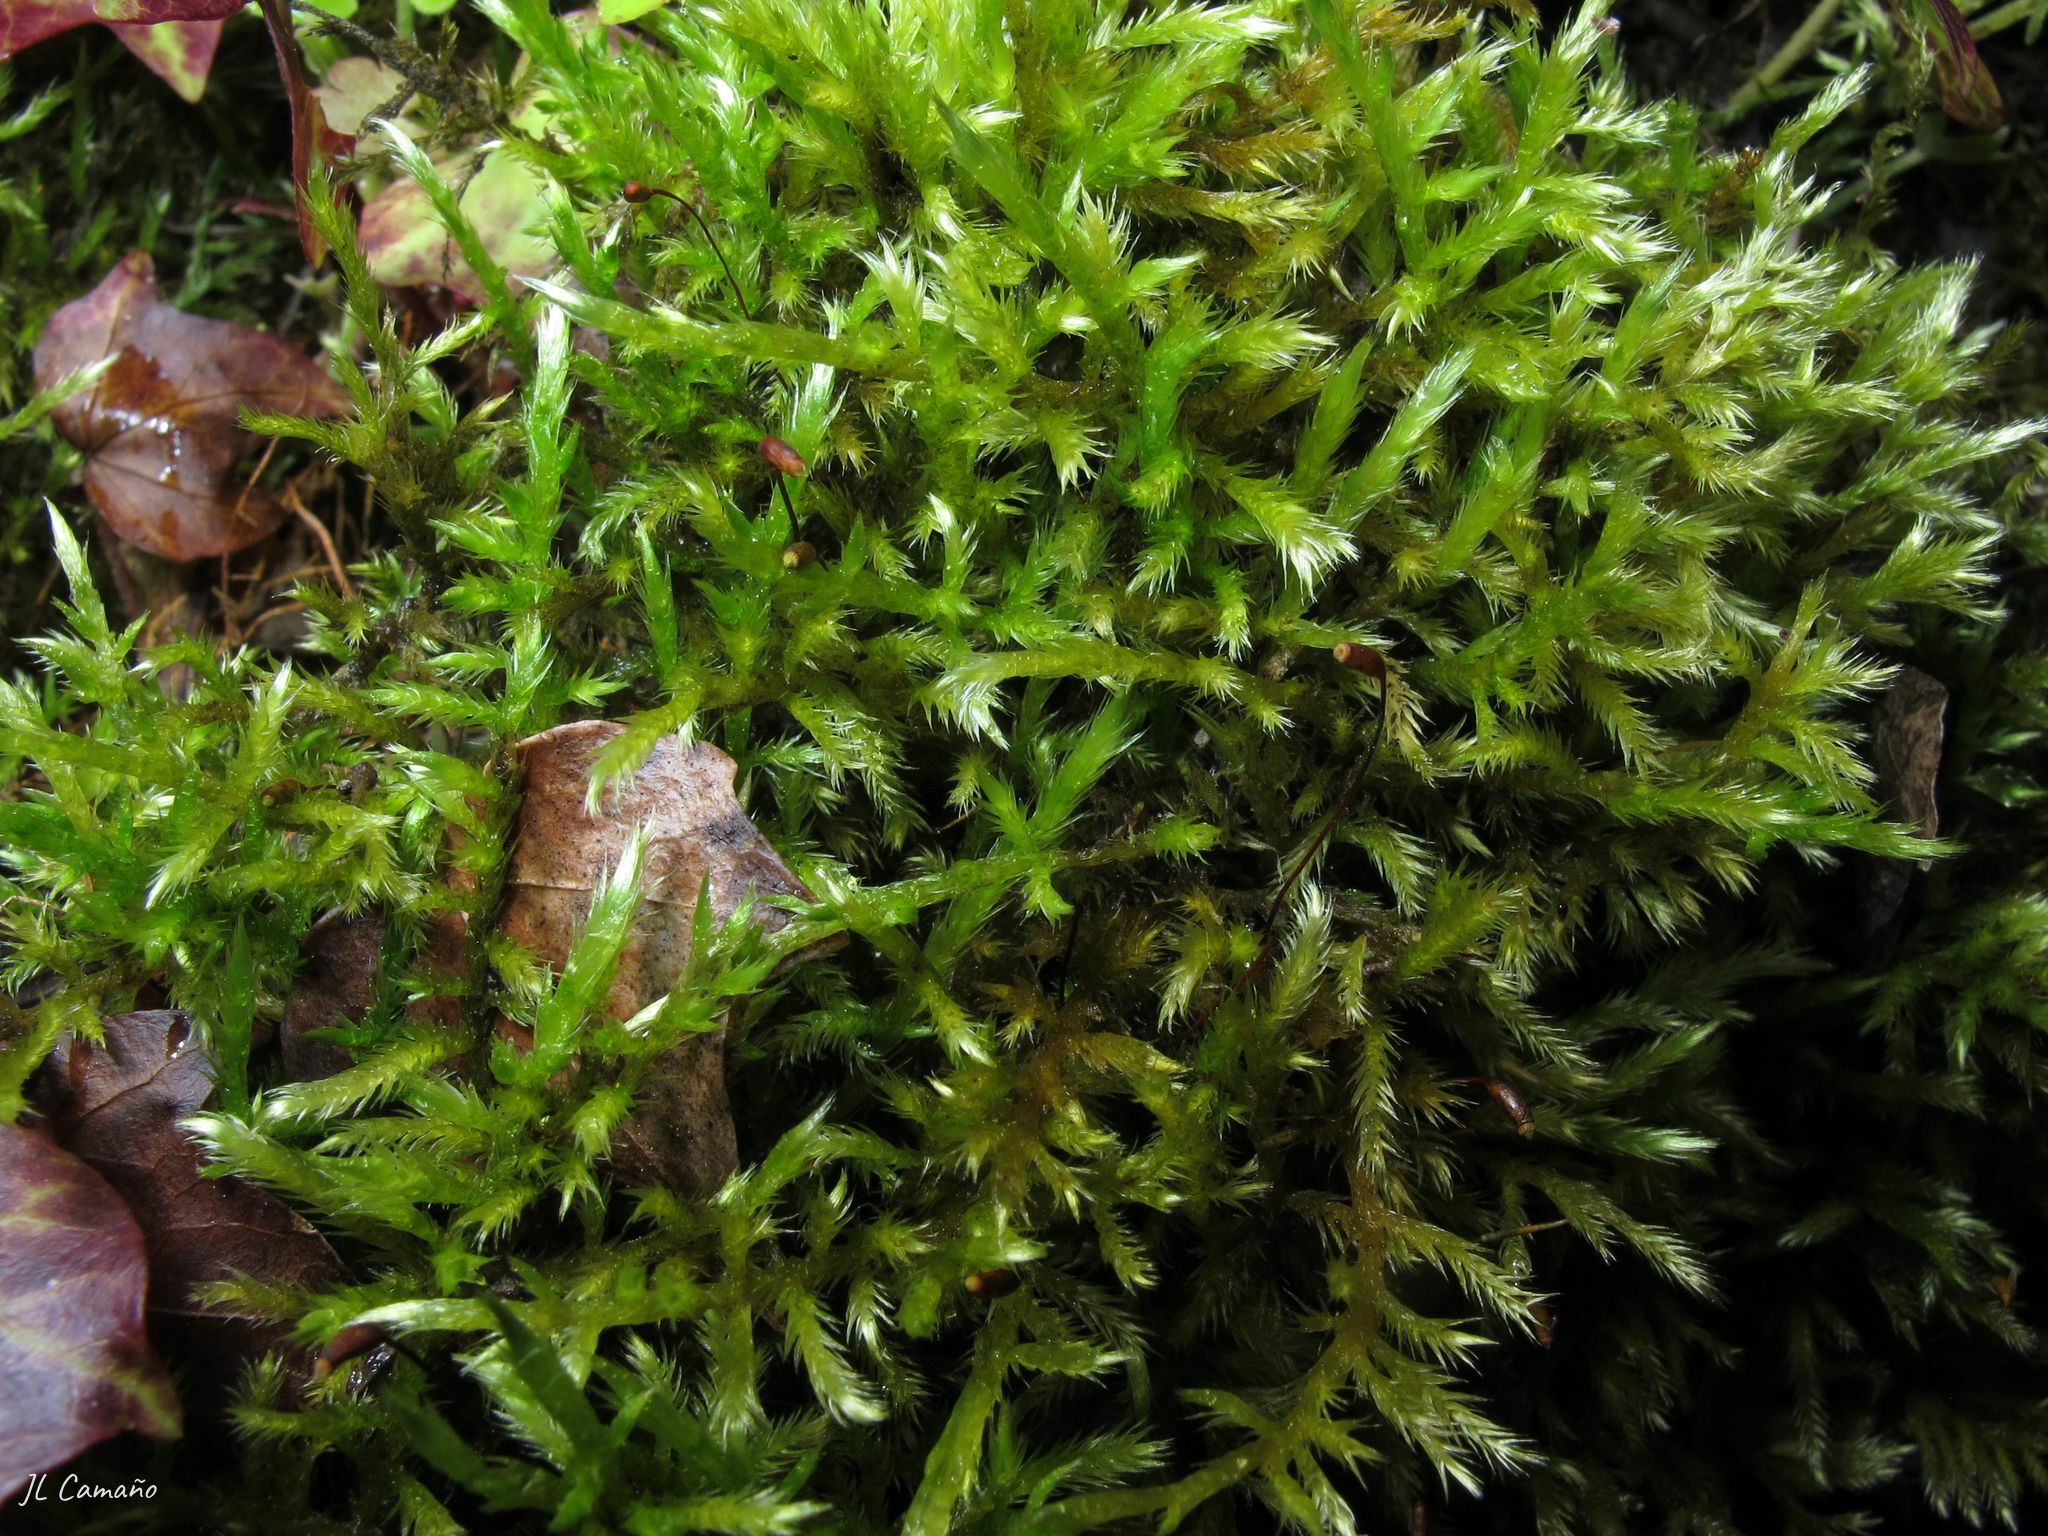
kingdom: Plantae
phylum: Bryophyta
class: Bryopsida
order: Hypnales
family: Brachytheciaceae
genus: Homalothecium
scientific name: Homalothecium lutescens
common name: Yellow feather-moss
